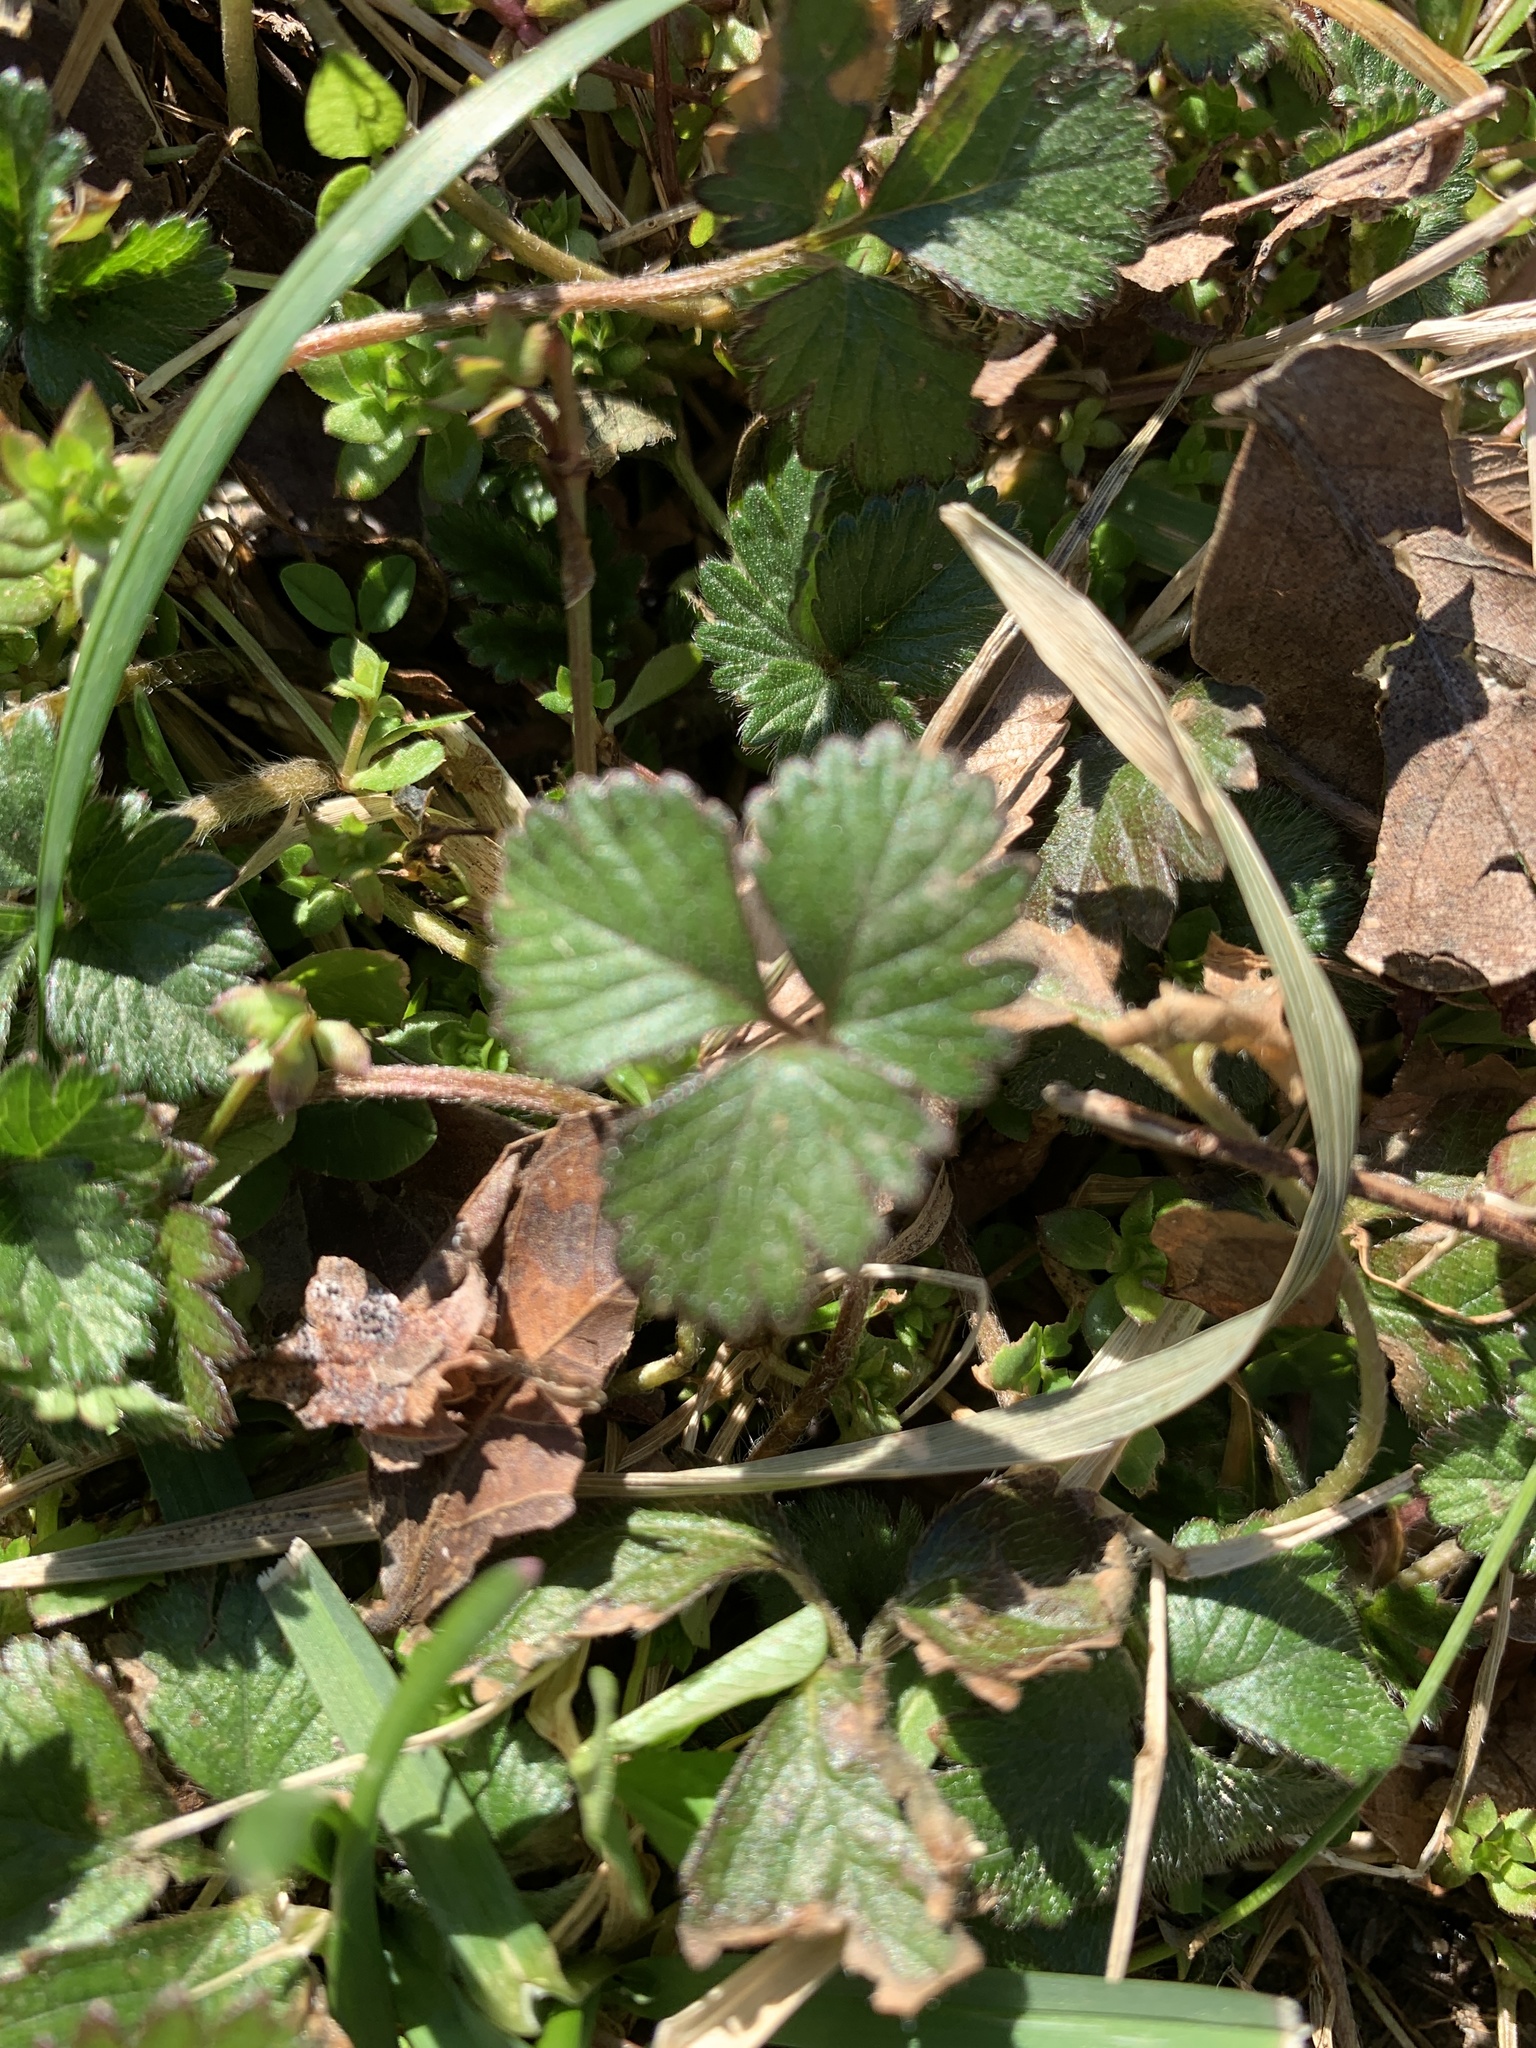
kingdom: Plantae
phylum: Tracheophyta
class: Magnoliopsida
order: Rosales
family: Rosaceae
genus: Potentilla
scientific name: Potentilla indica
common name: Yellow-flowered strawberry
